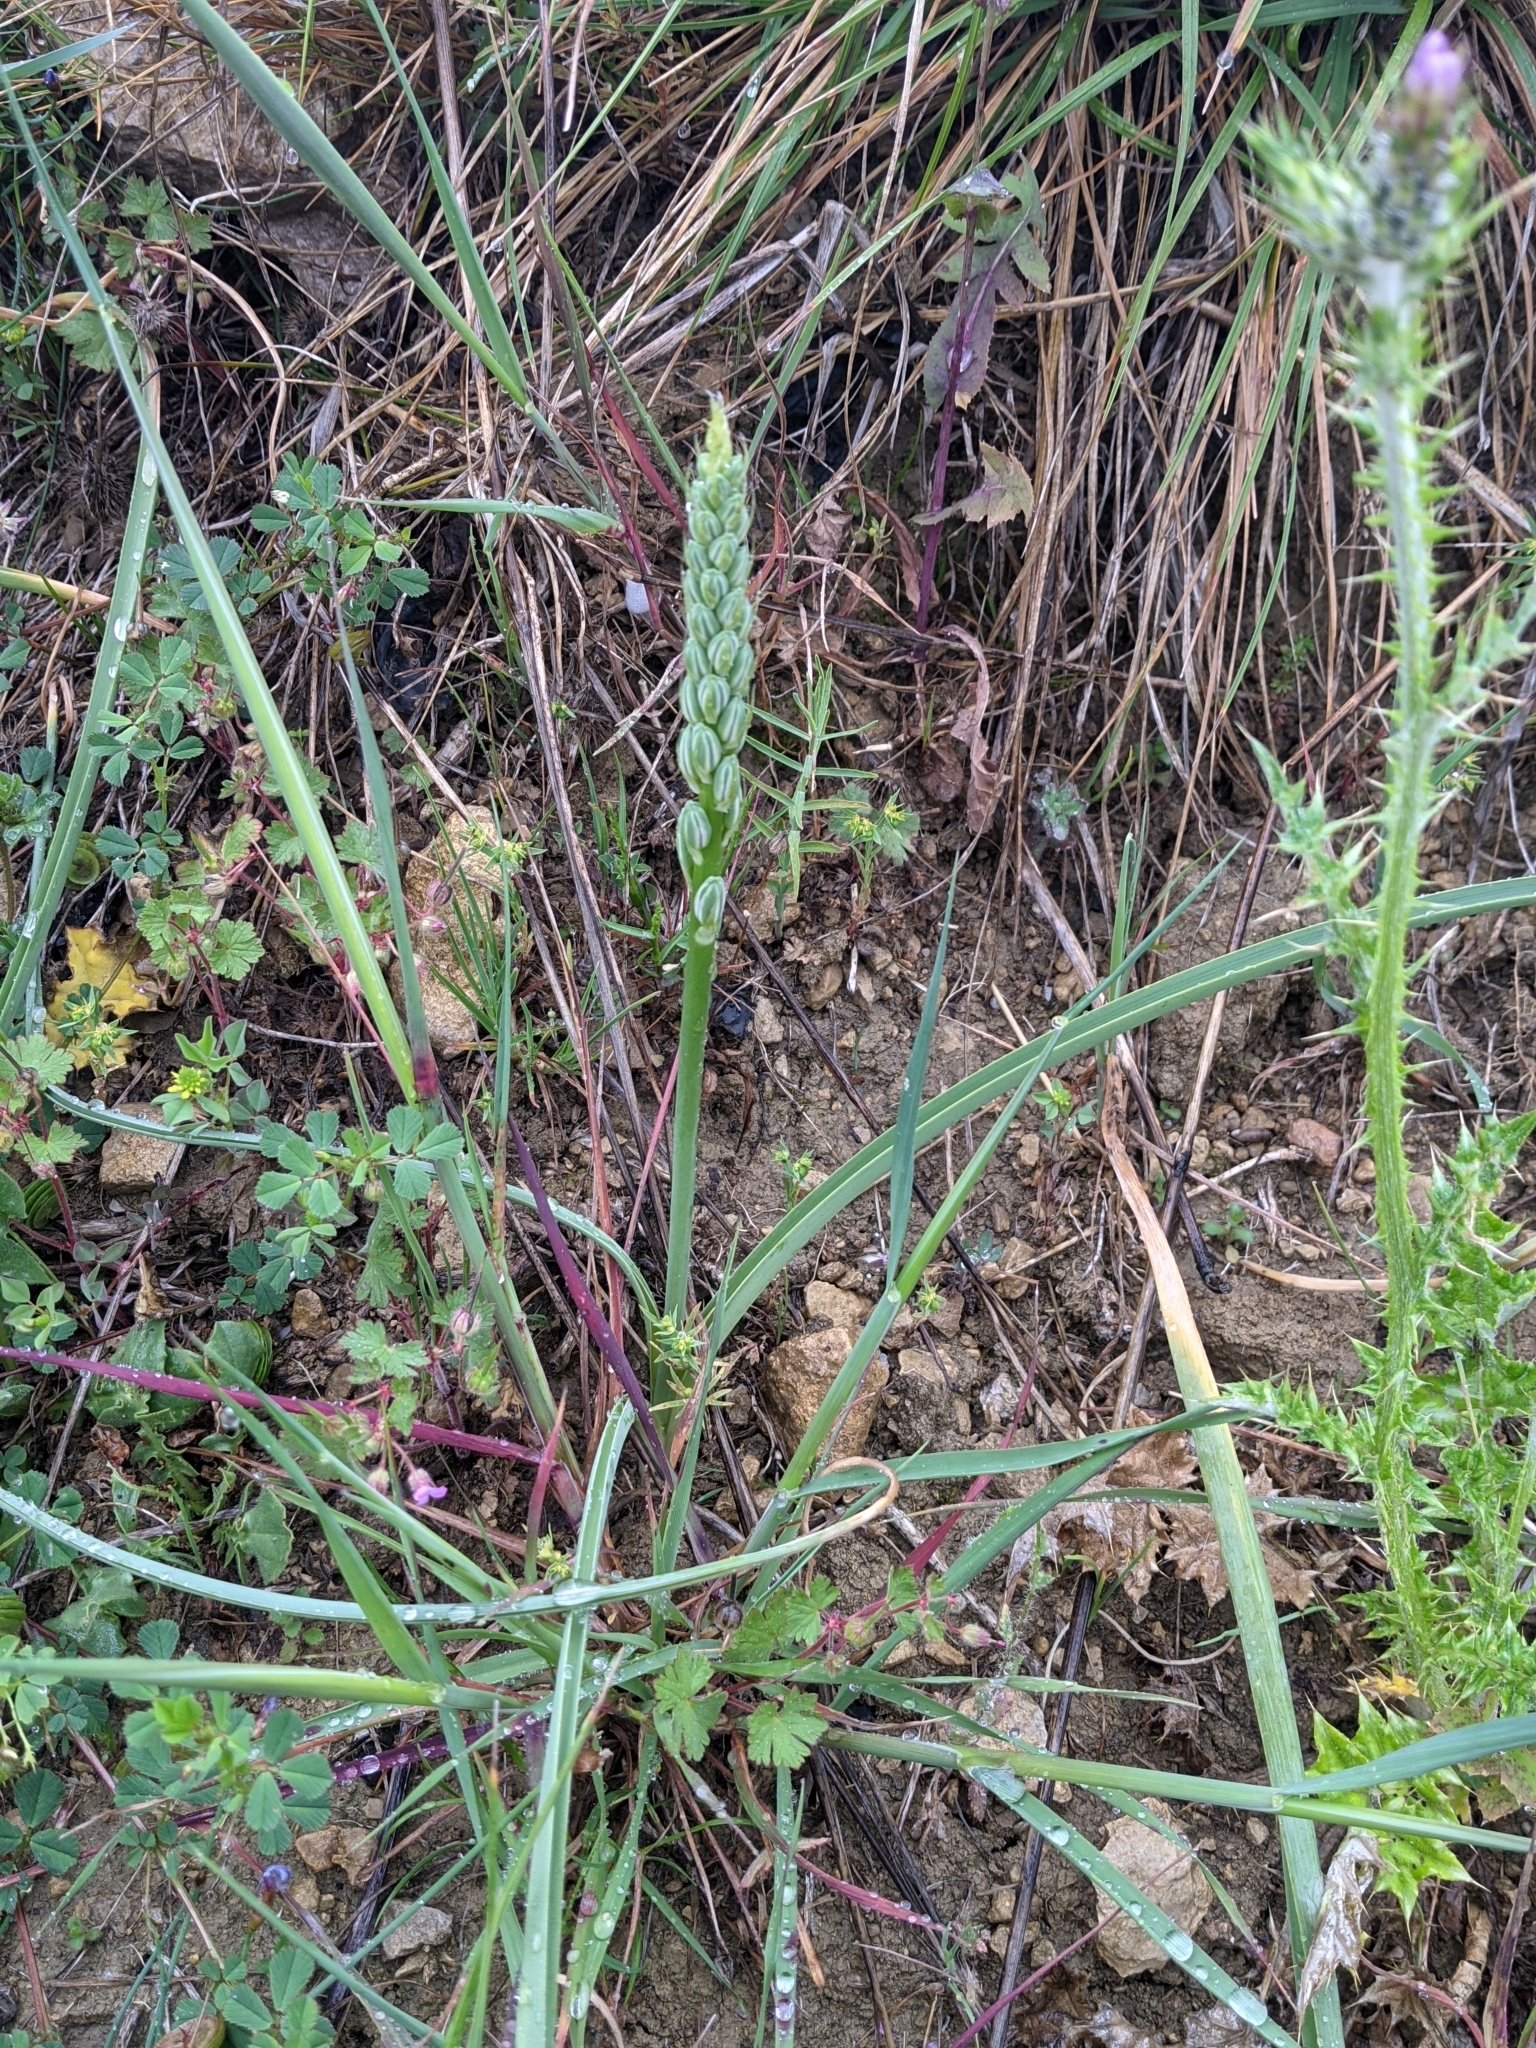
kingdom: Plantae
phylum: Tracheophyta
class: Liliopsida
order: Asparagales
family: Asparagaceae
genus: Ornithogalum
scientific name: Ornithogalum narbonense
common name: Bath-asparagus
